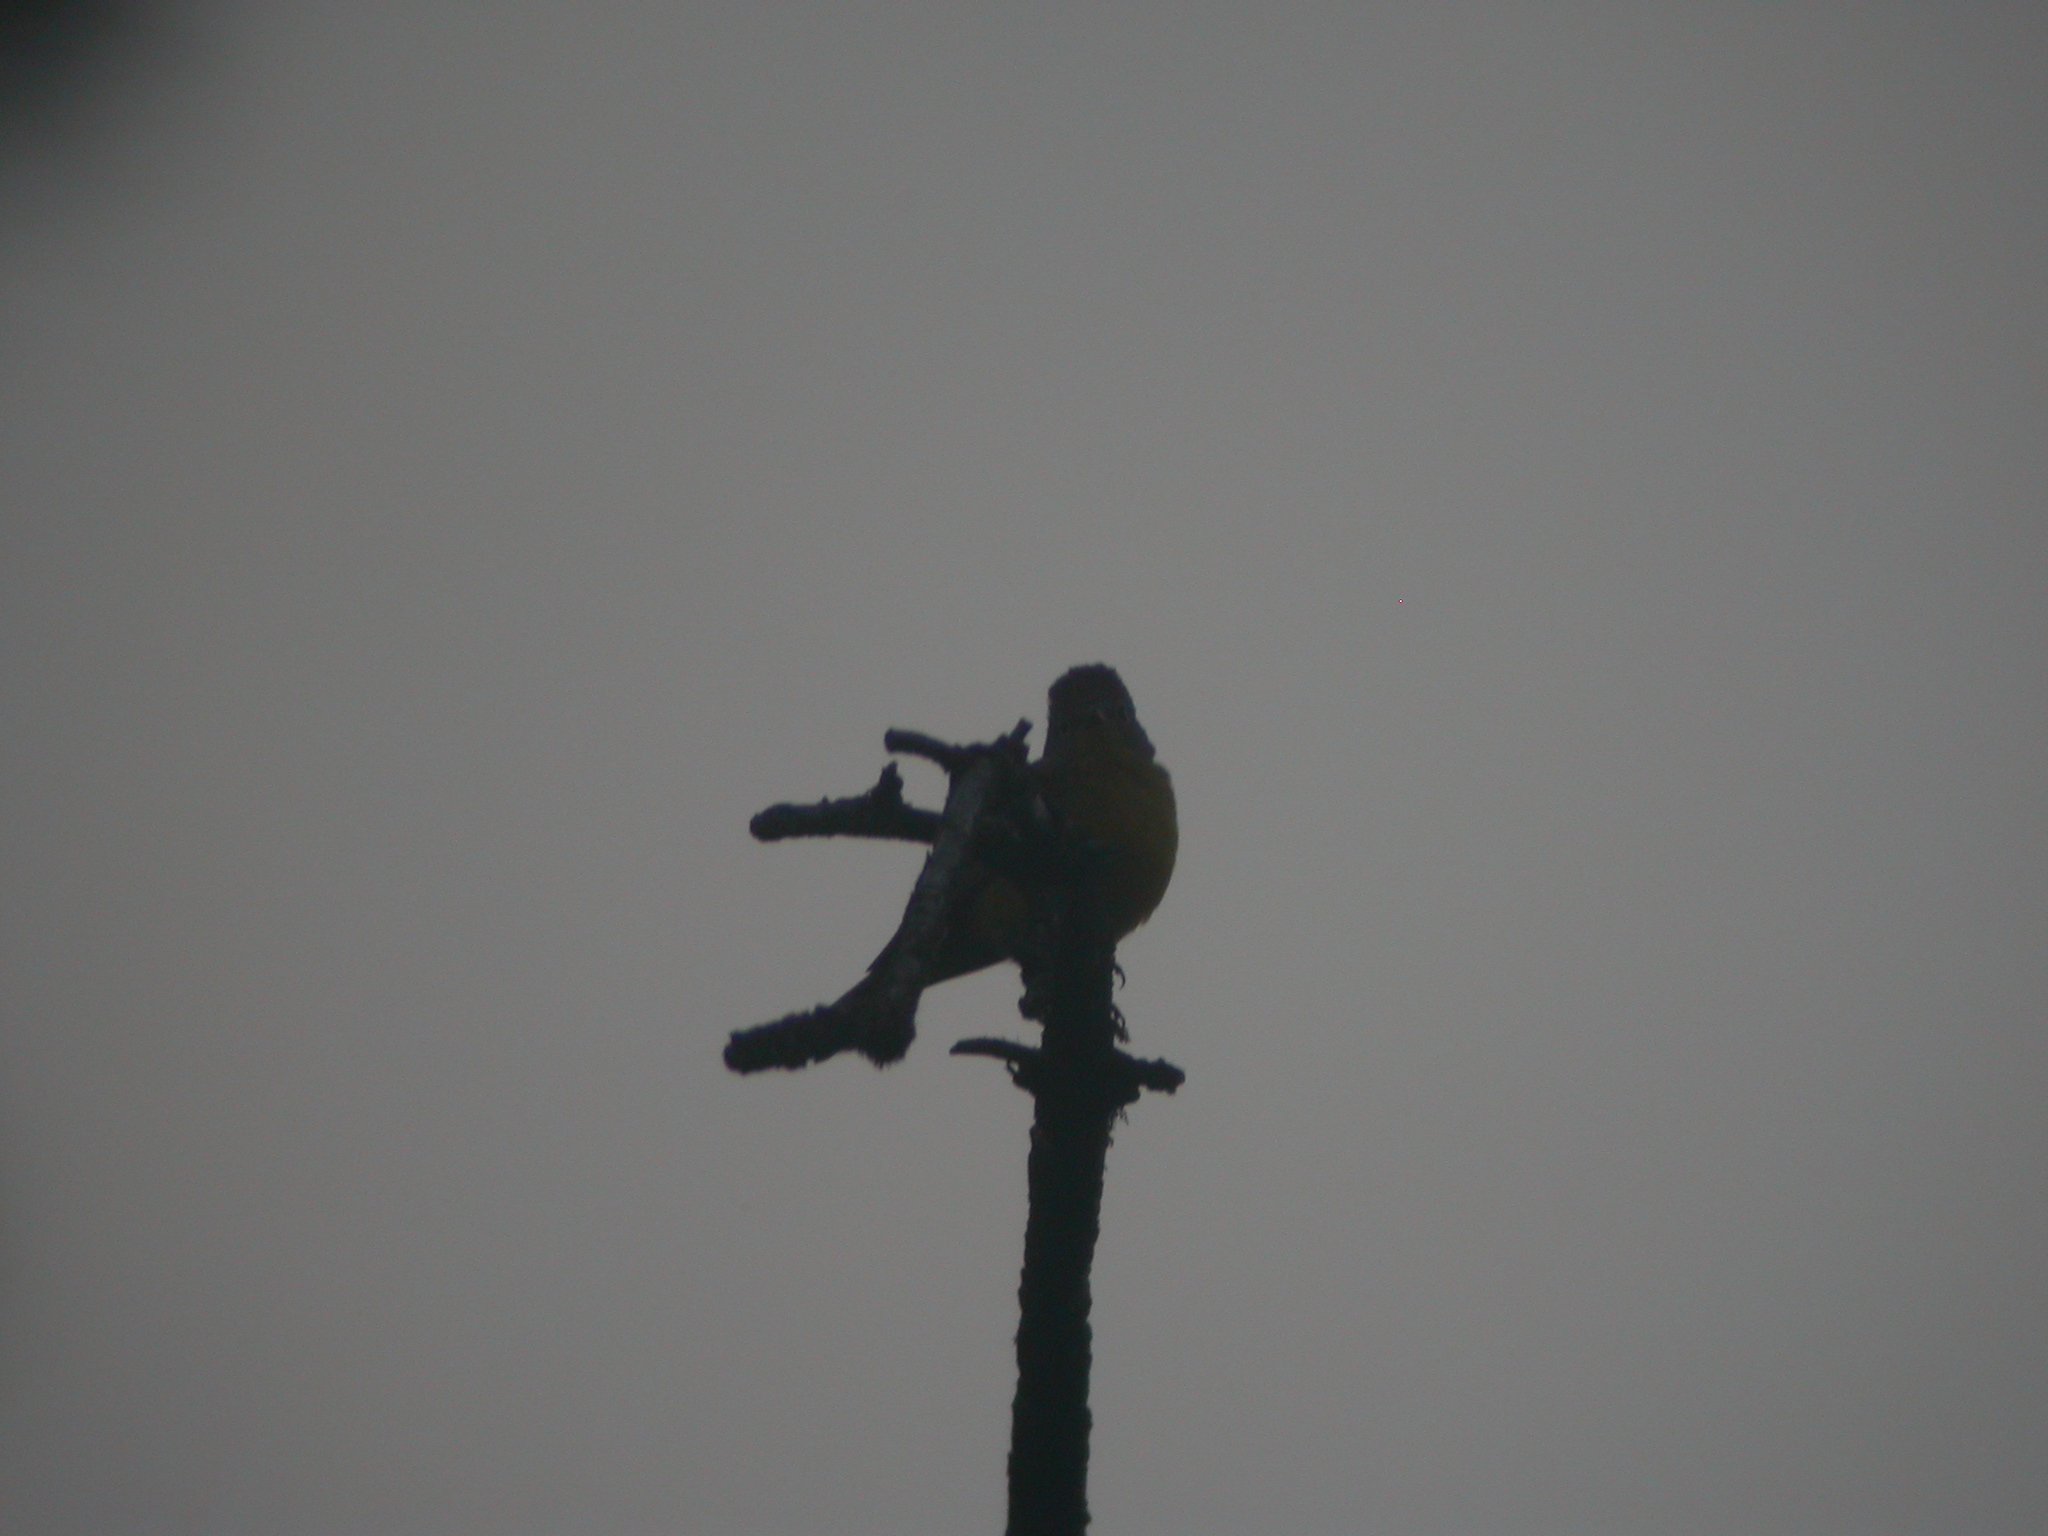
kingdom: Animalia
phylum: Chordata
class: Aves
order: Passeriformes
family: Parulidae
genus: Leiothlypis
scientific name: Leiothlypis ruficapilla
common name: Nashville warbler
